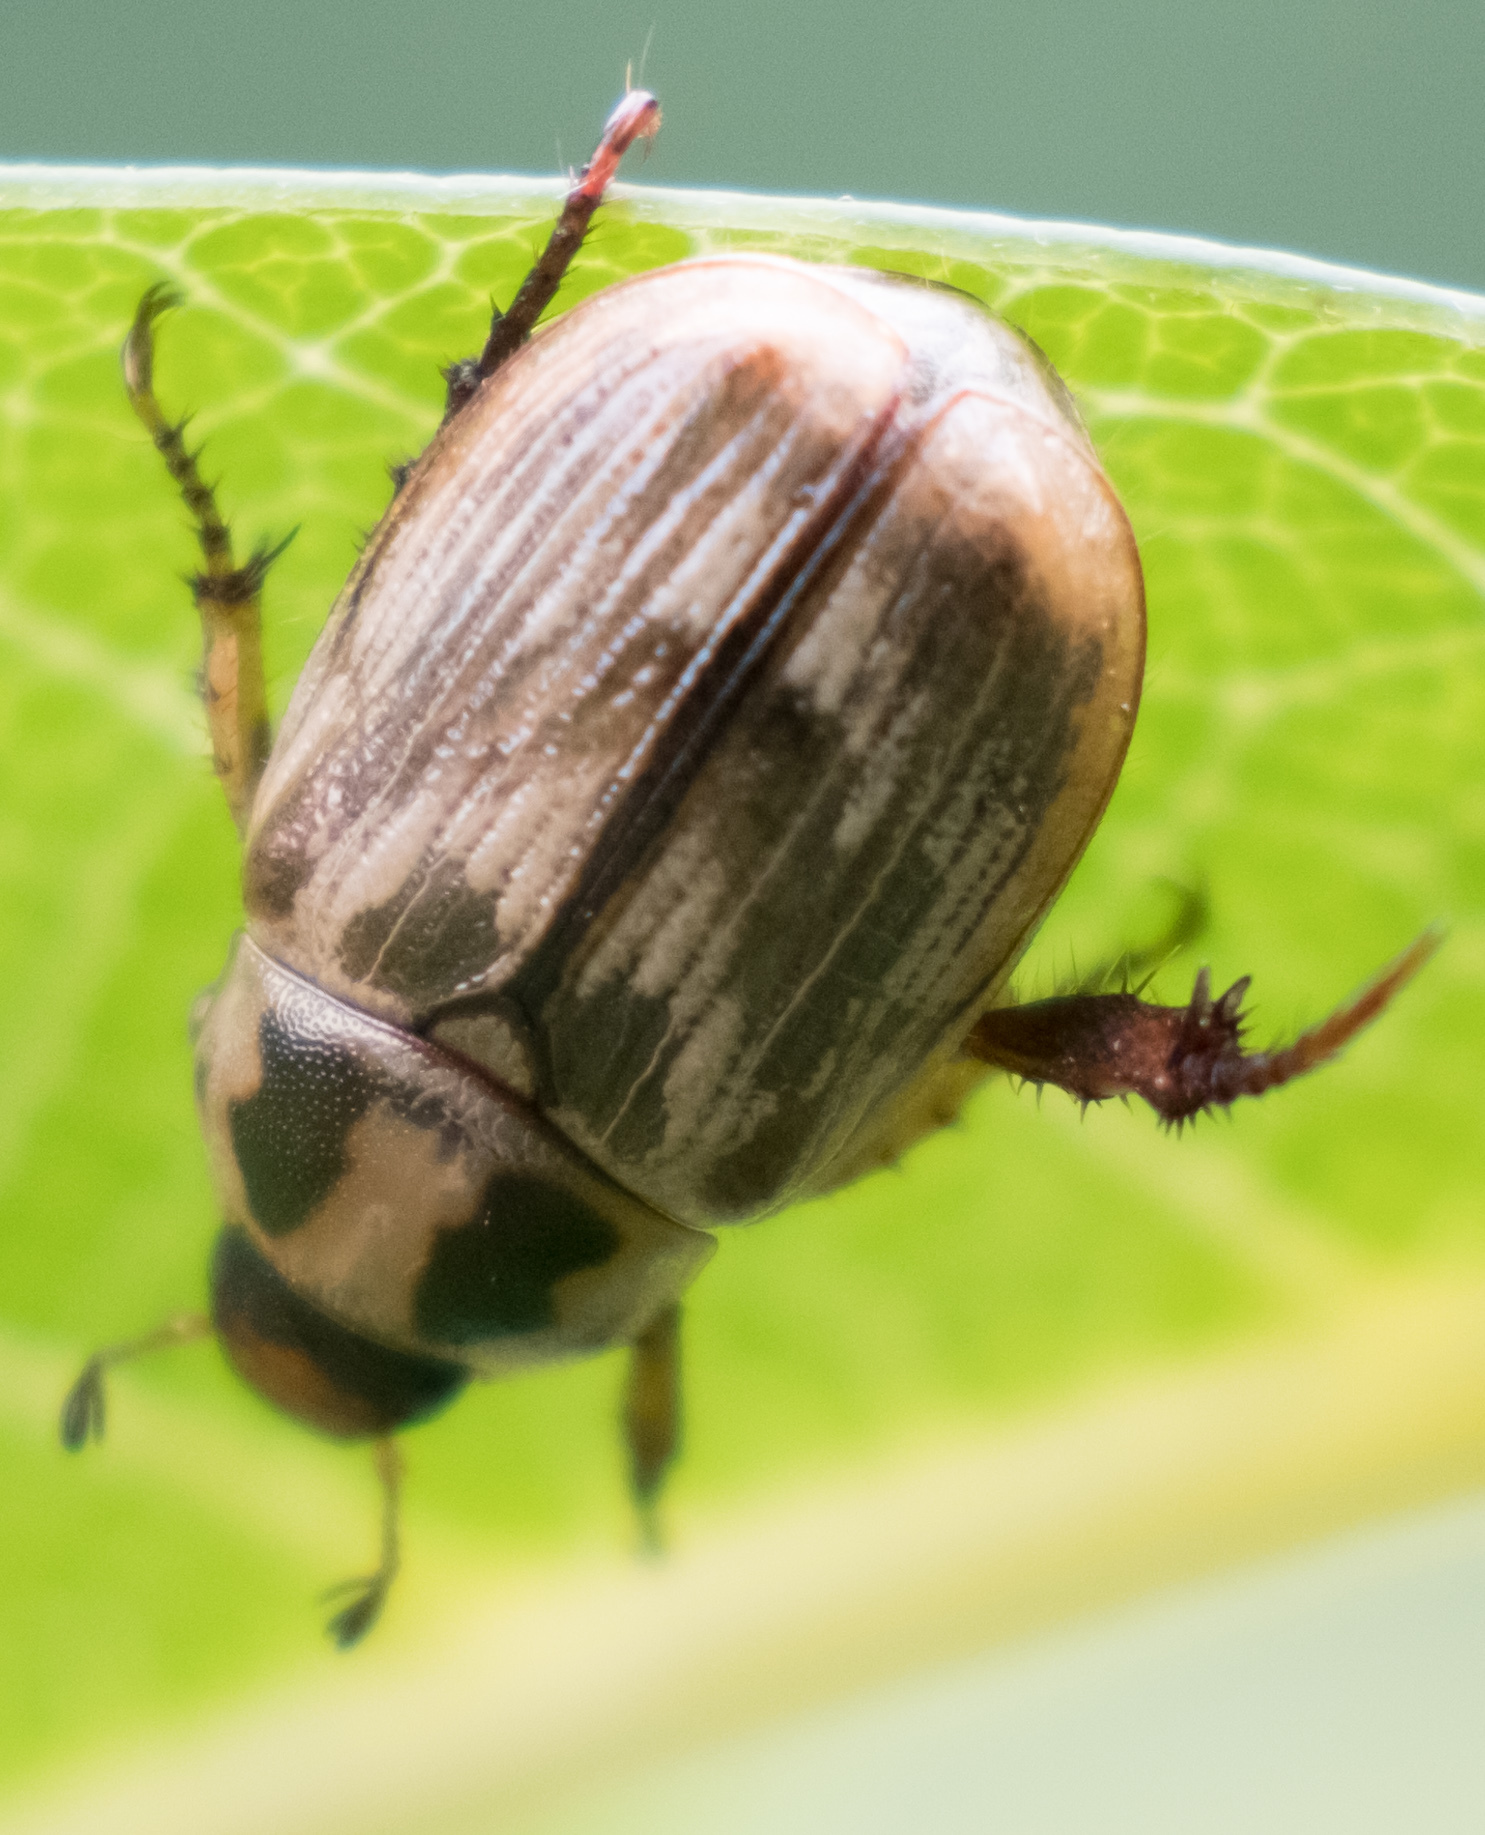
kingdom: Animalia
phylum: Arthropoda
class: Insecta
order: Coleoptera
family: Scarabaeidae
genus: Exomala
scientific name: Exomala orientalis
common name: Oriental beetle
